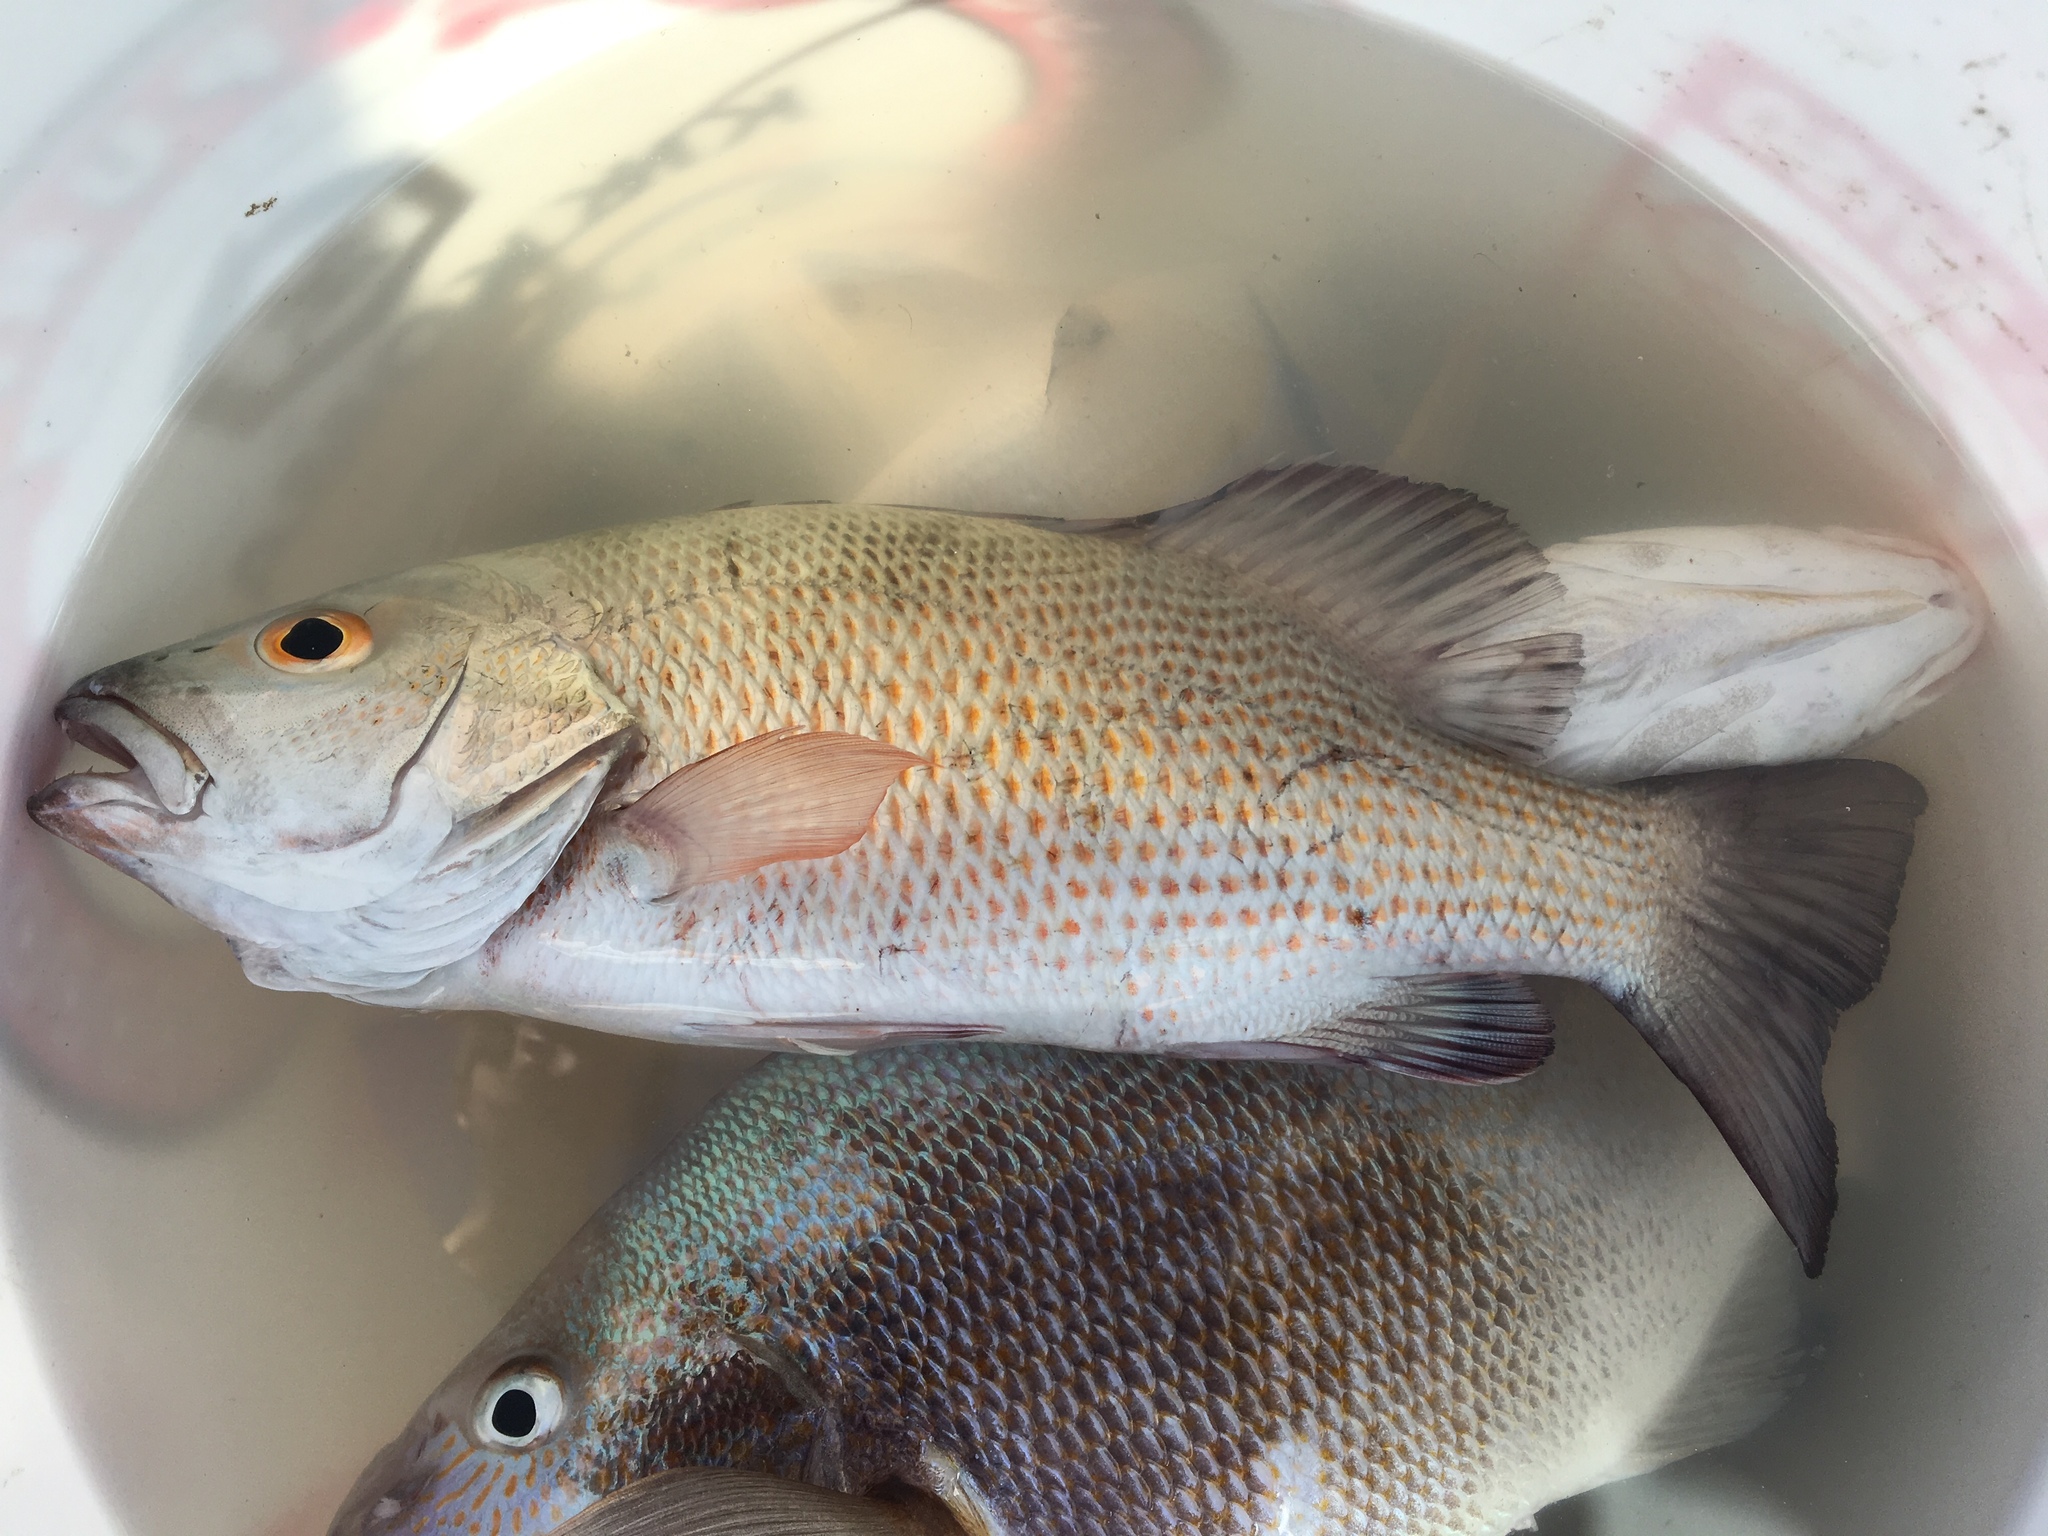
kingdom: Animalia
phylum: Chordata
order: Perciformes
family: Lutjanidae
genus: Lutjanus
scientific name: Lutjanus griseus
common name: Gray snapper
